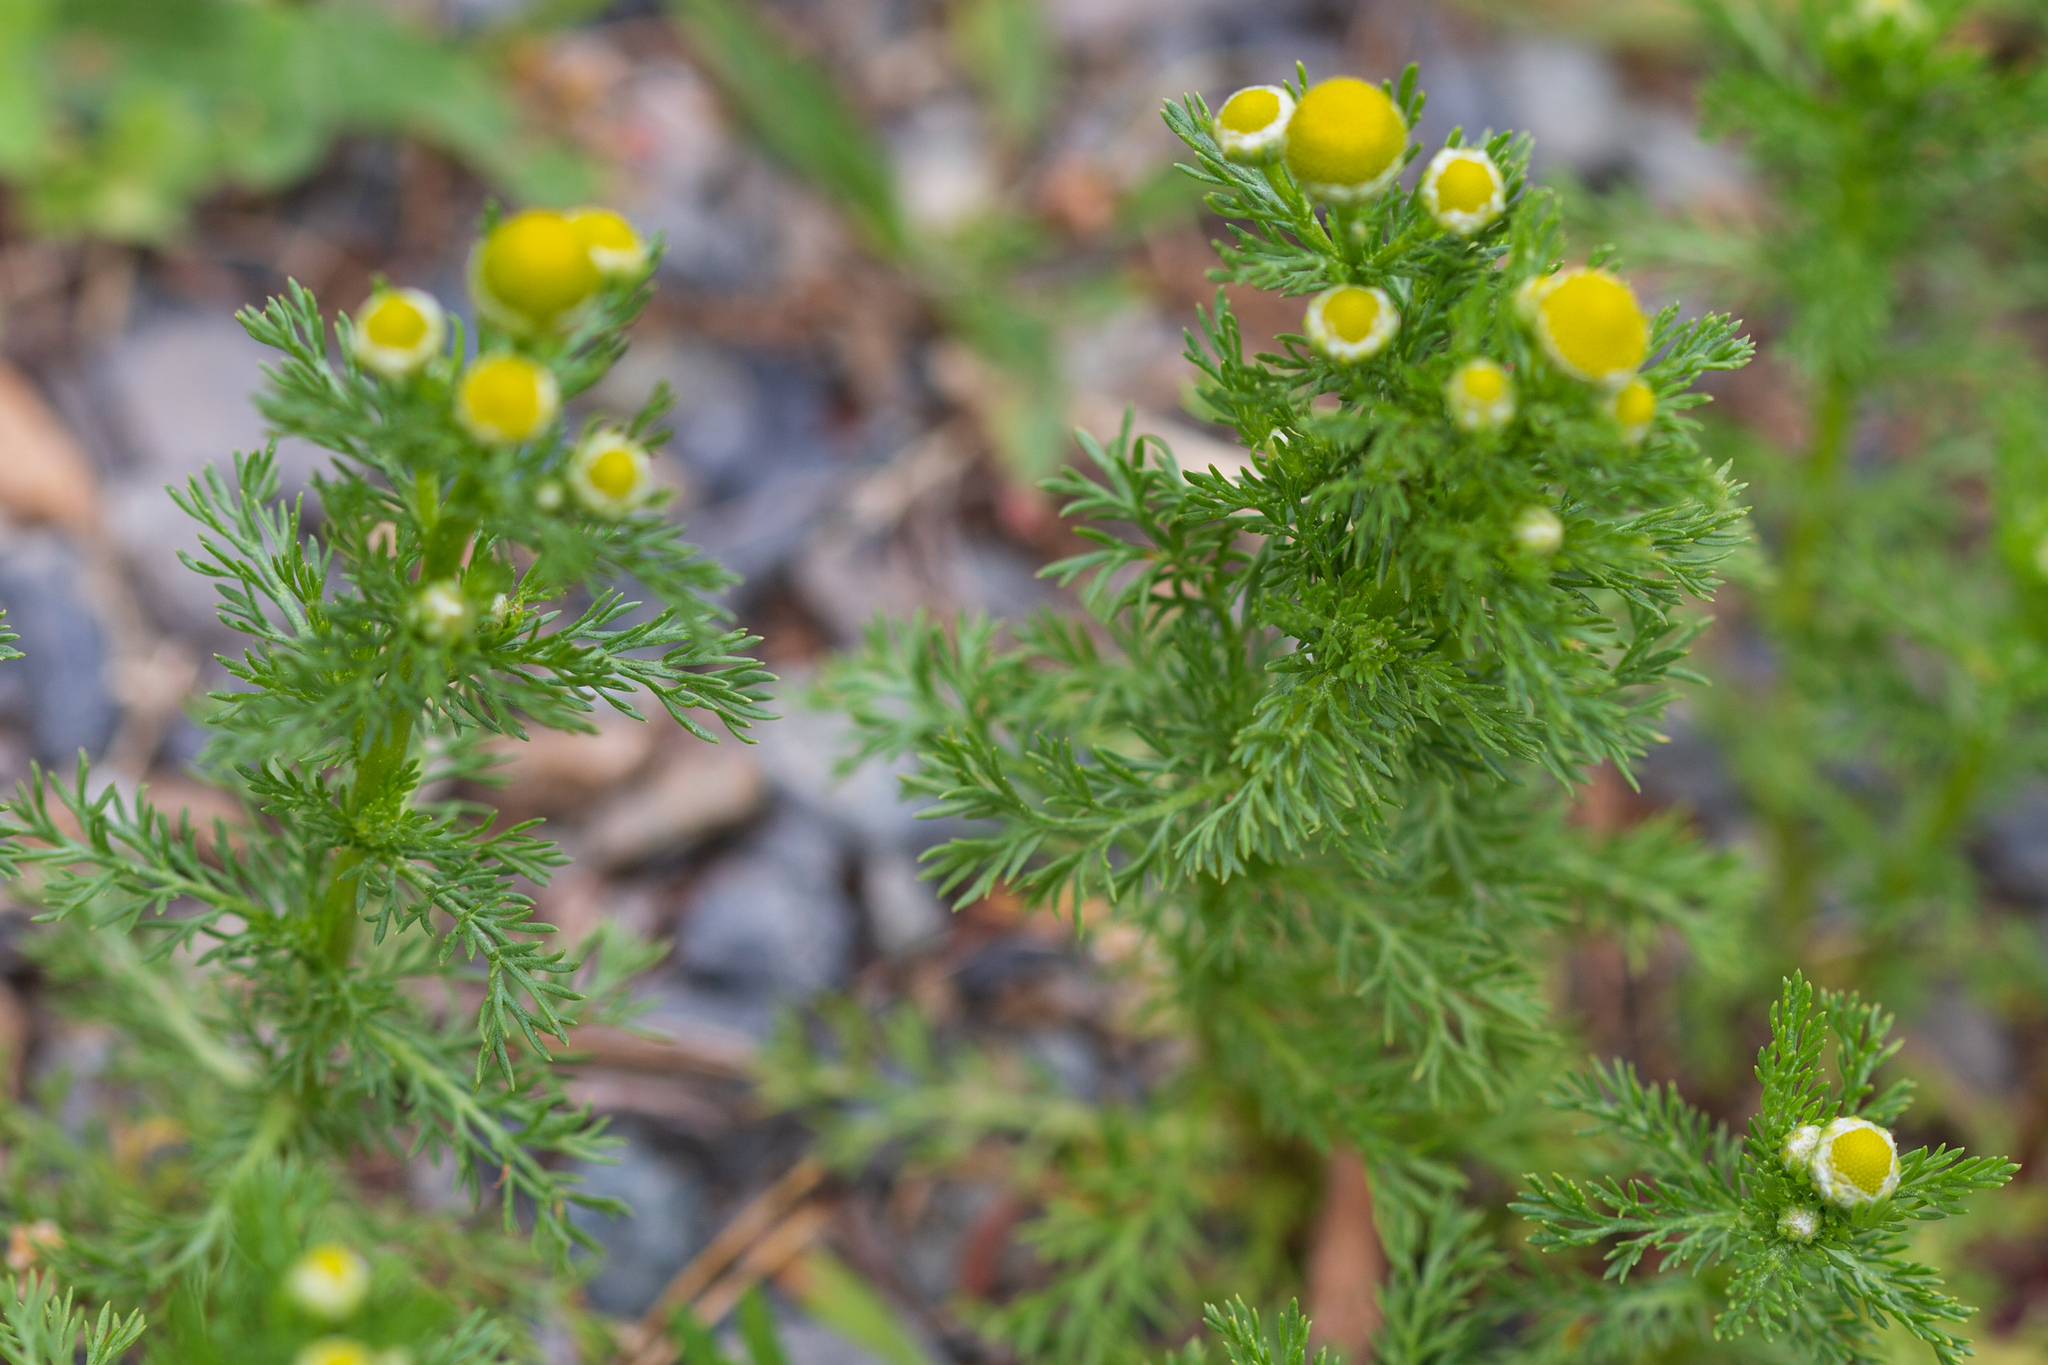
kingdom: Plantae
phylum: Tracheophyta
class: Magnoliopsida
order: Asterales
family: Asteraceae
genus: Matricaria
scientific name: Matricaria discoidea
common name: Disc mayweed
